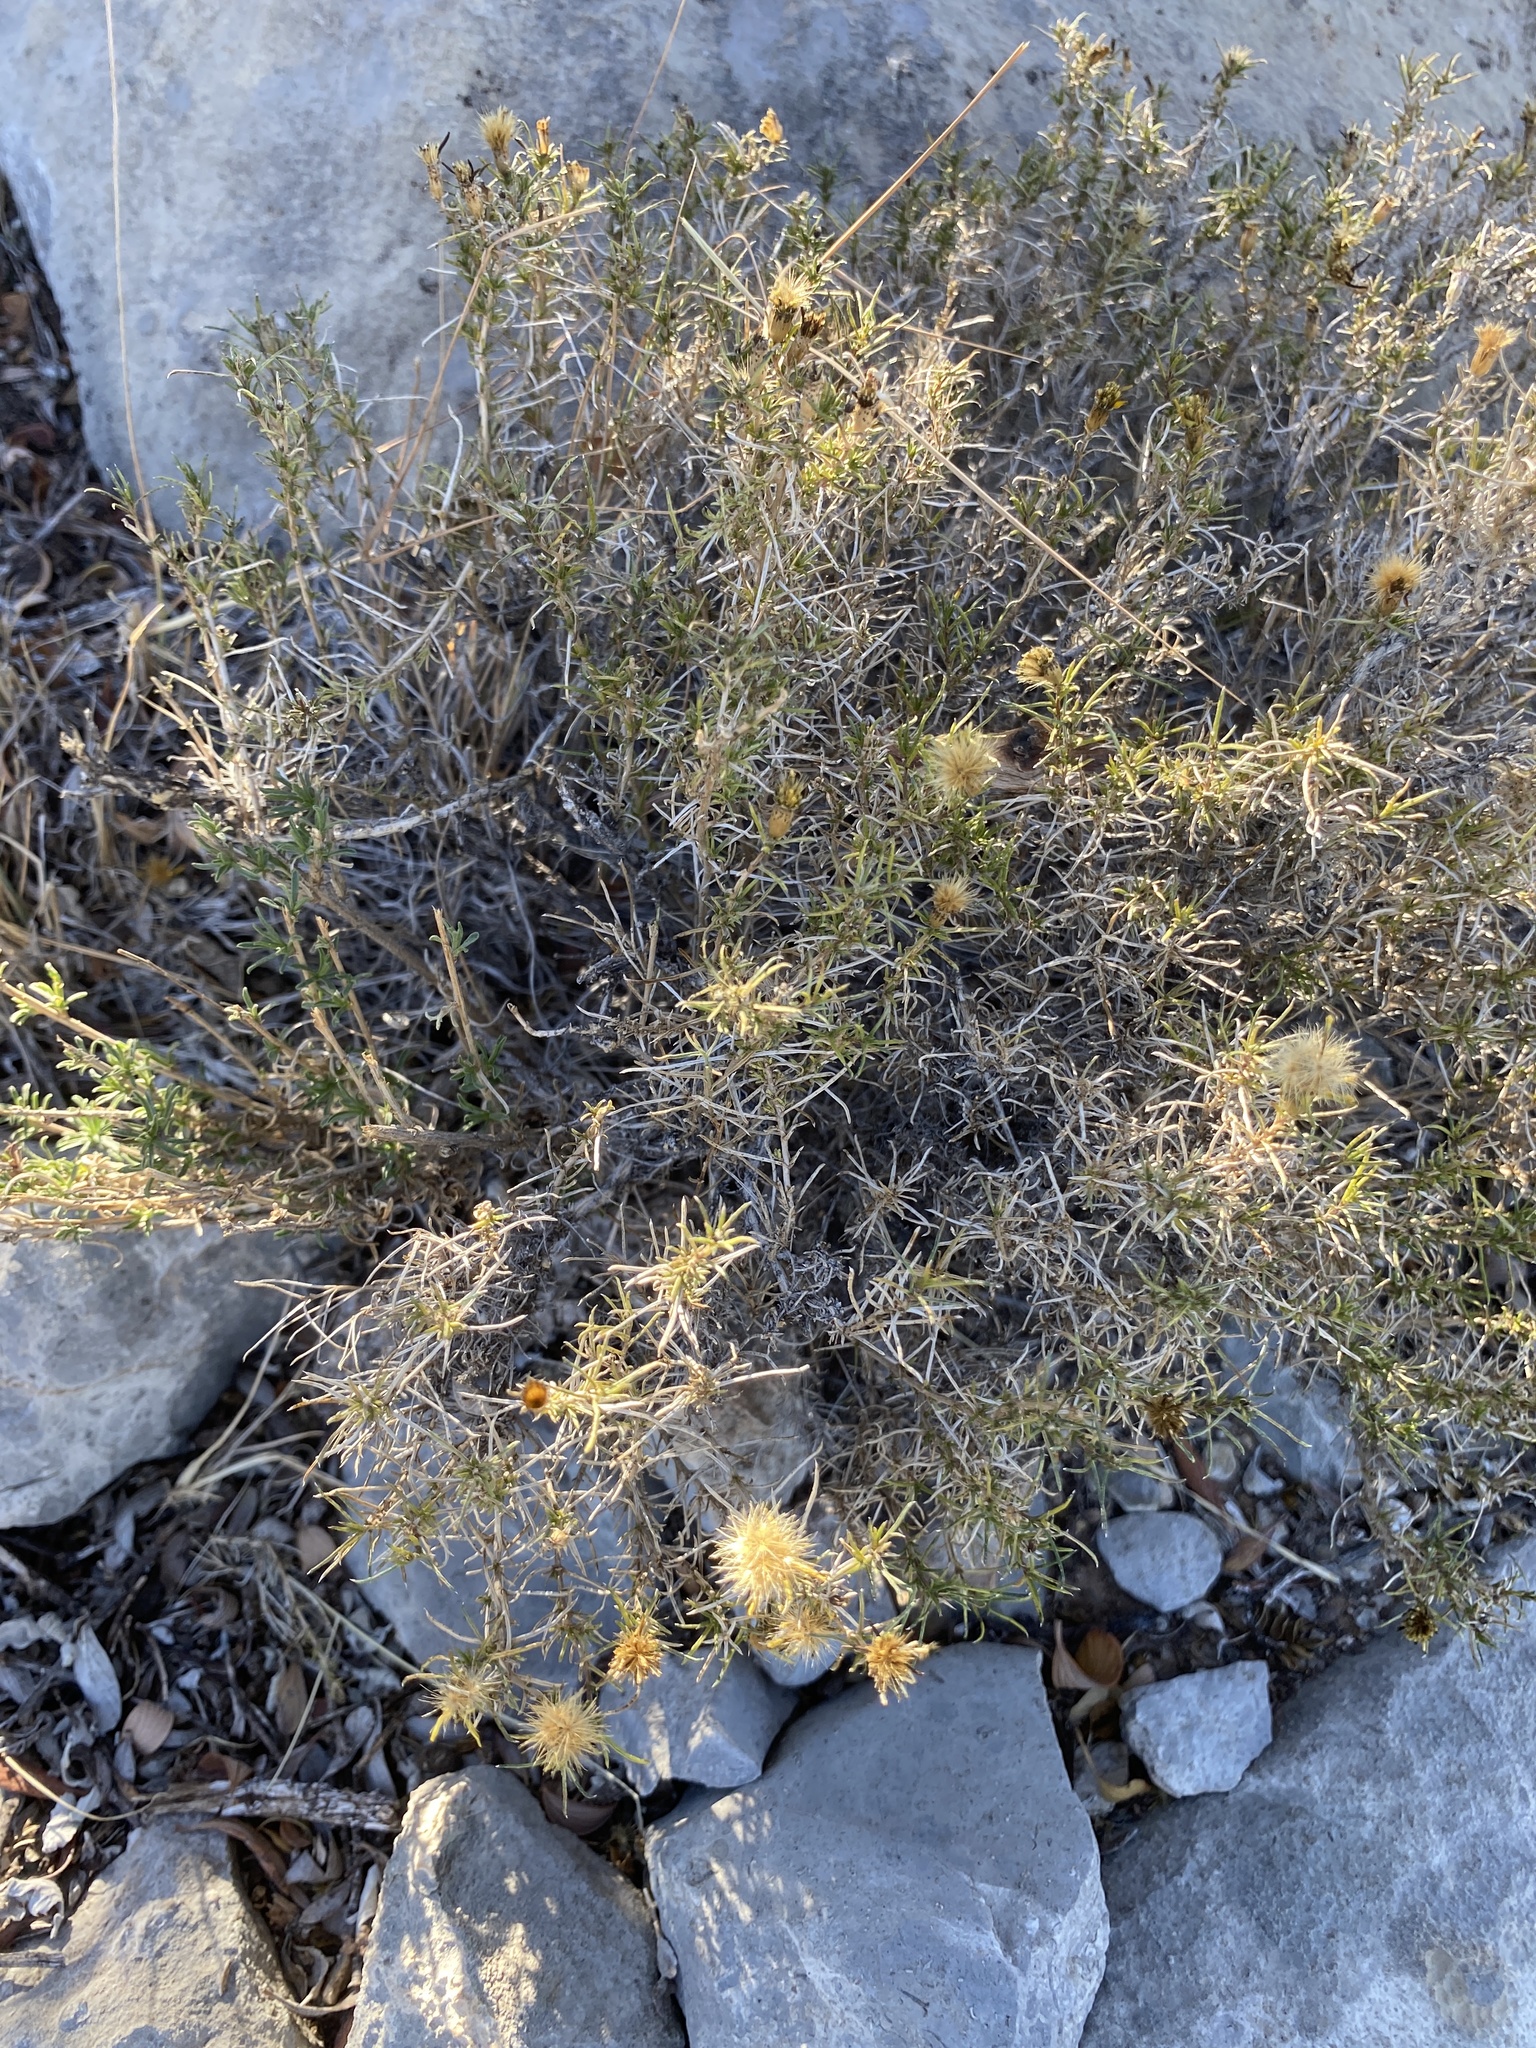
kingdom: Plantae
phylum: Tracheophyta
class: Magnoliopsida
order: Asterales
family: Asteraceae
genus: Thymophylla
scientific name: Thymophylla acerosa
